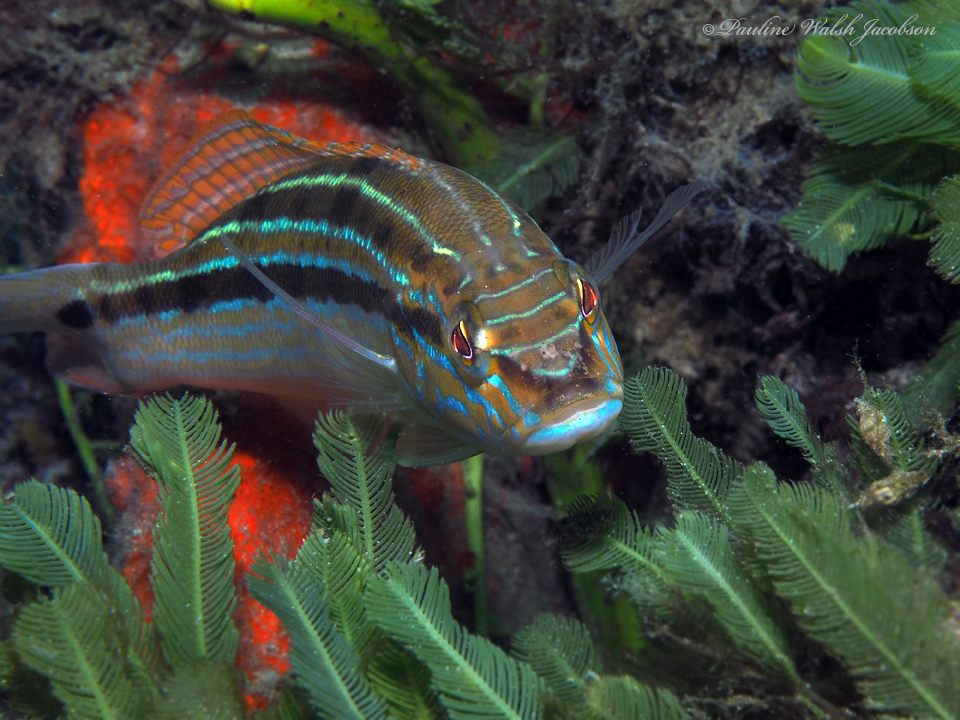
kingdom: Animalia
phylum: Chordata
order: Perciformes
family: Serranidae
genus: Diplectrum
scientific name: Diplectrum formosum
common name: Sand perch
